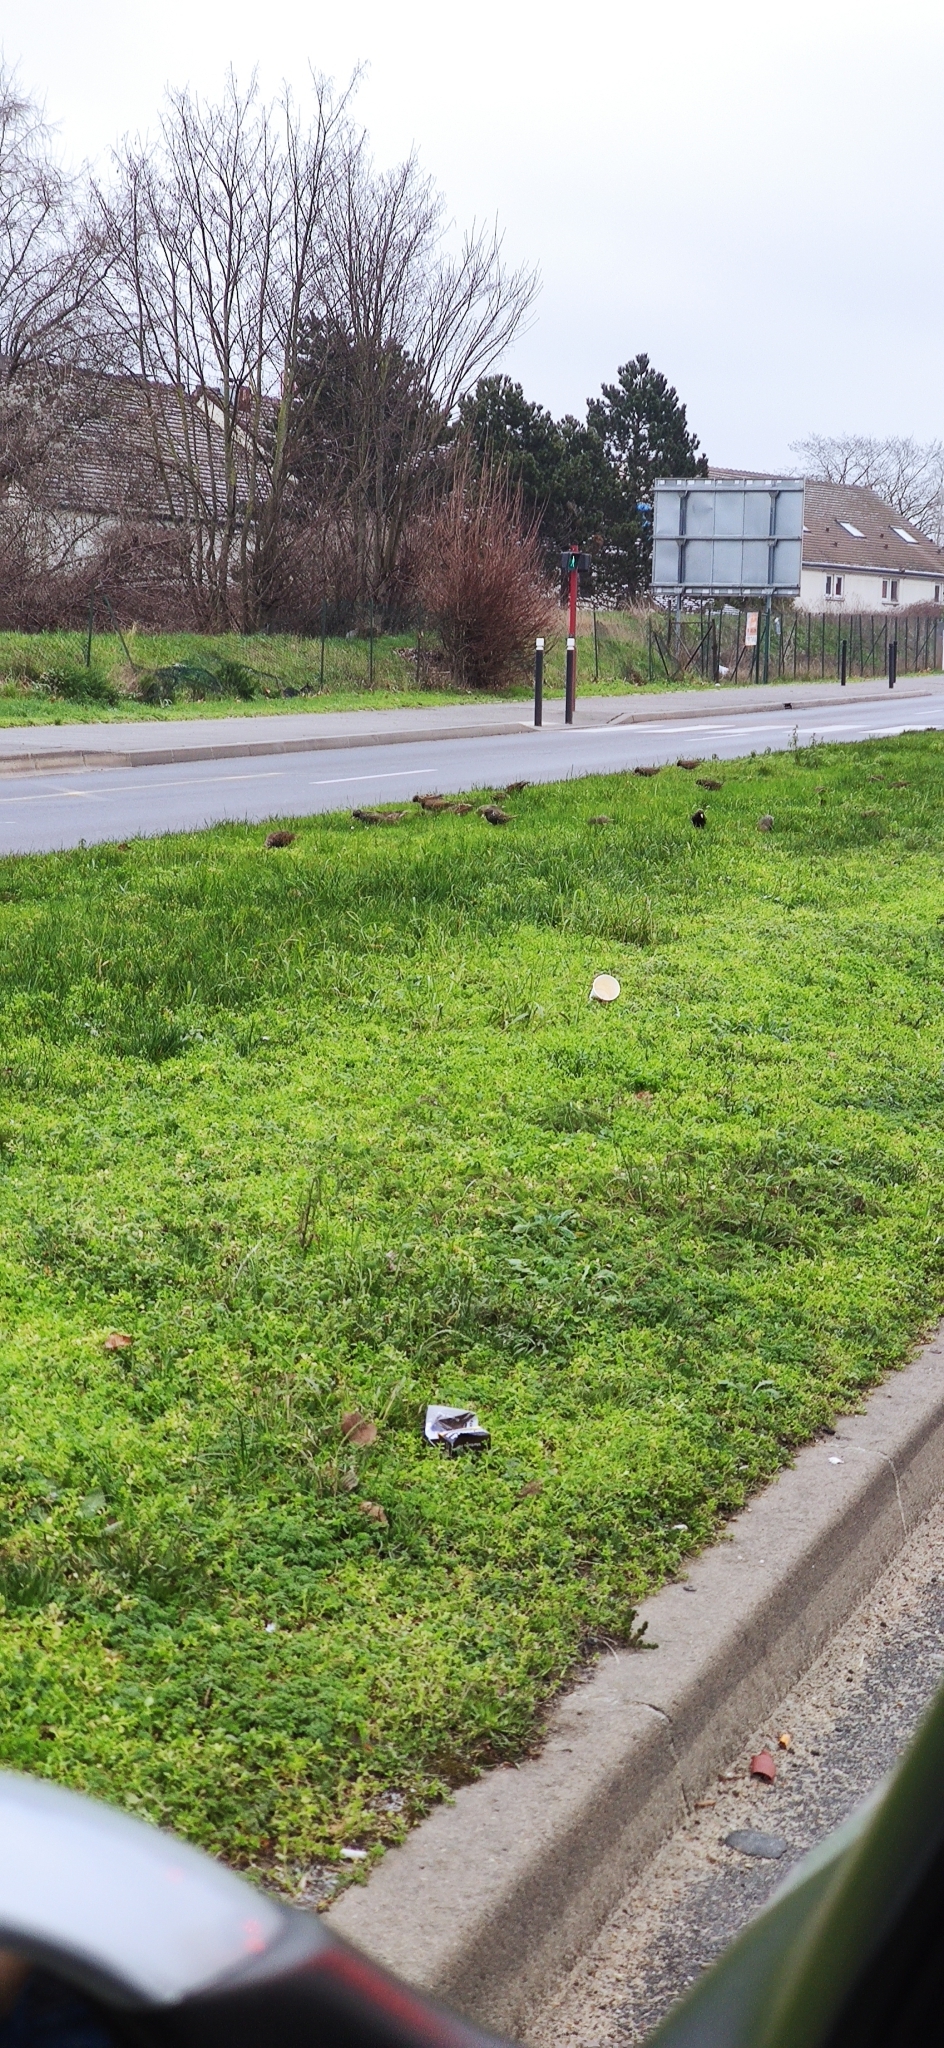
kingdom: Animalia
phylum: Chordata
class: Aves
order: Passeriformes
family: Sturnidae
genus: Sturnus
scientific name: Sturnus vulgaris
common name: Common starling
